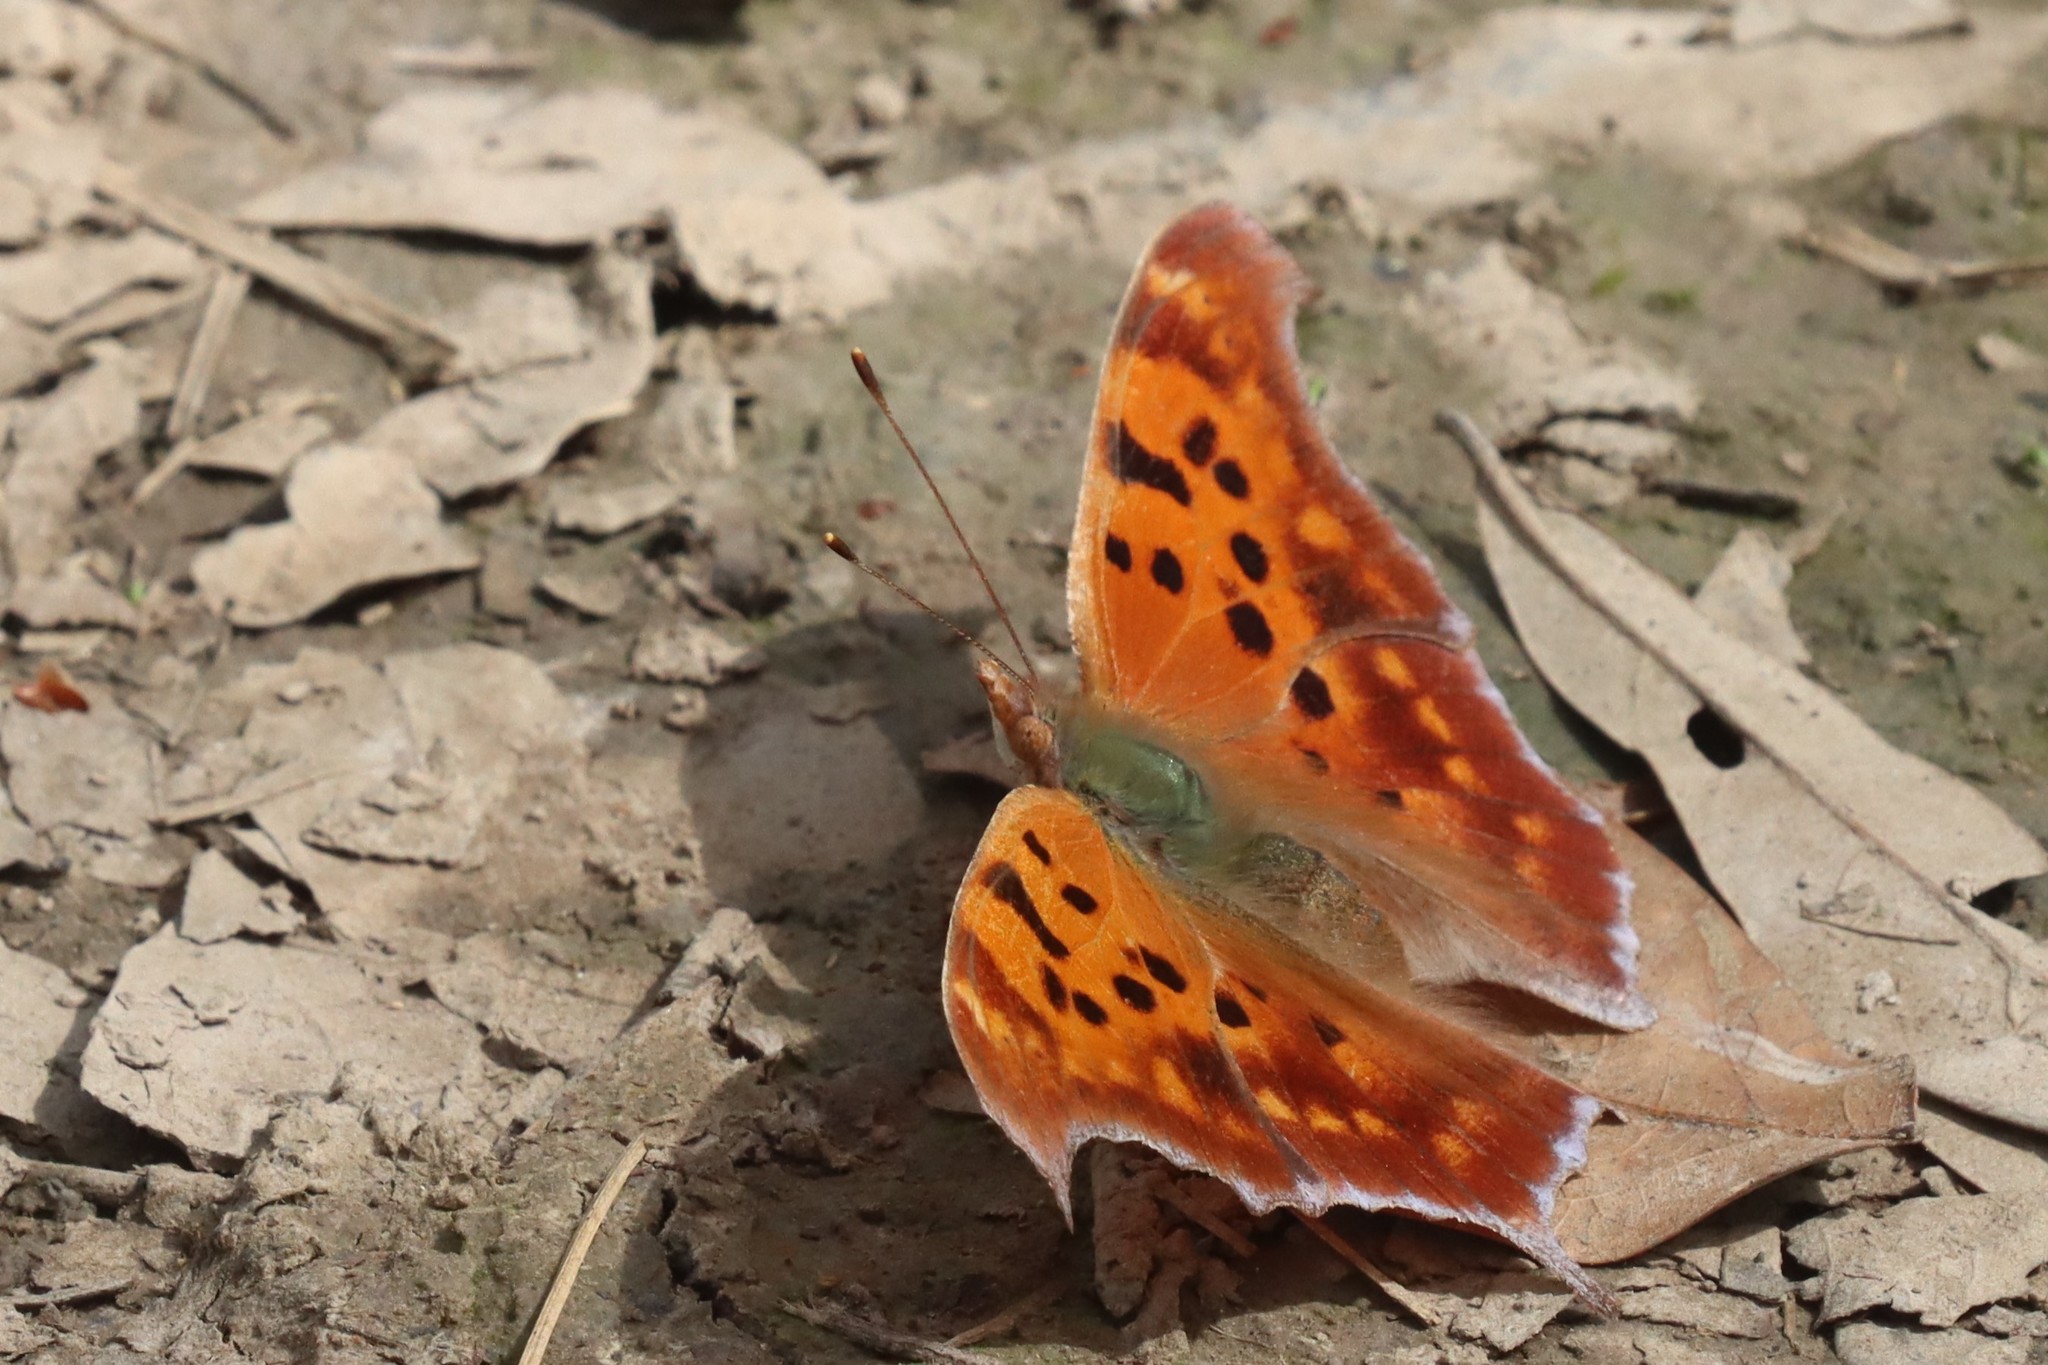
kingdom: Animalia
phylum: Arthropoda
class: Insecta
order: Lepidoptera
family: Nymphalidae
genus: Polygonia
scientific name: Polygonia interrogationis
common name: Question mark
